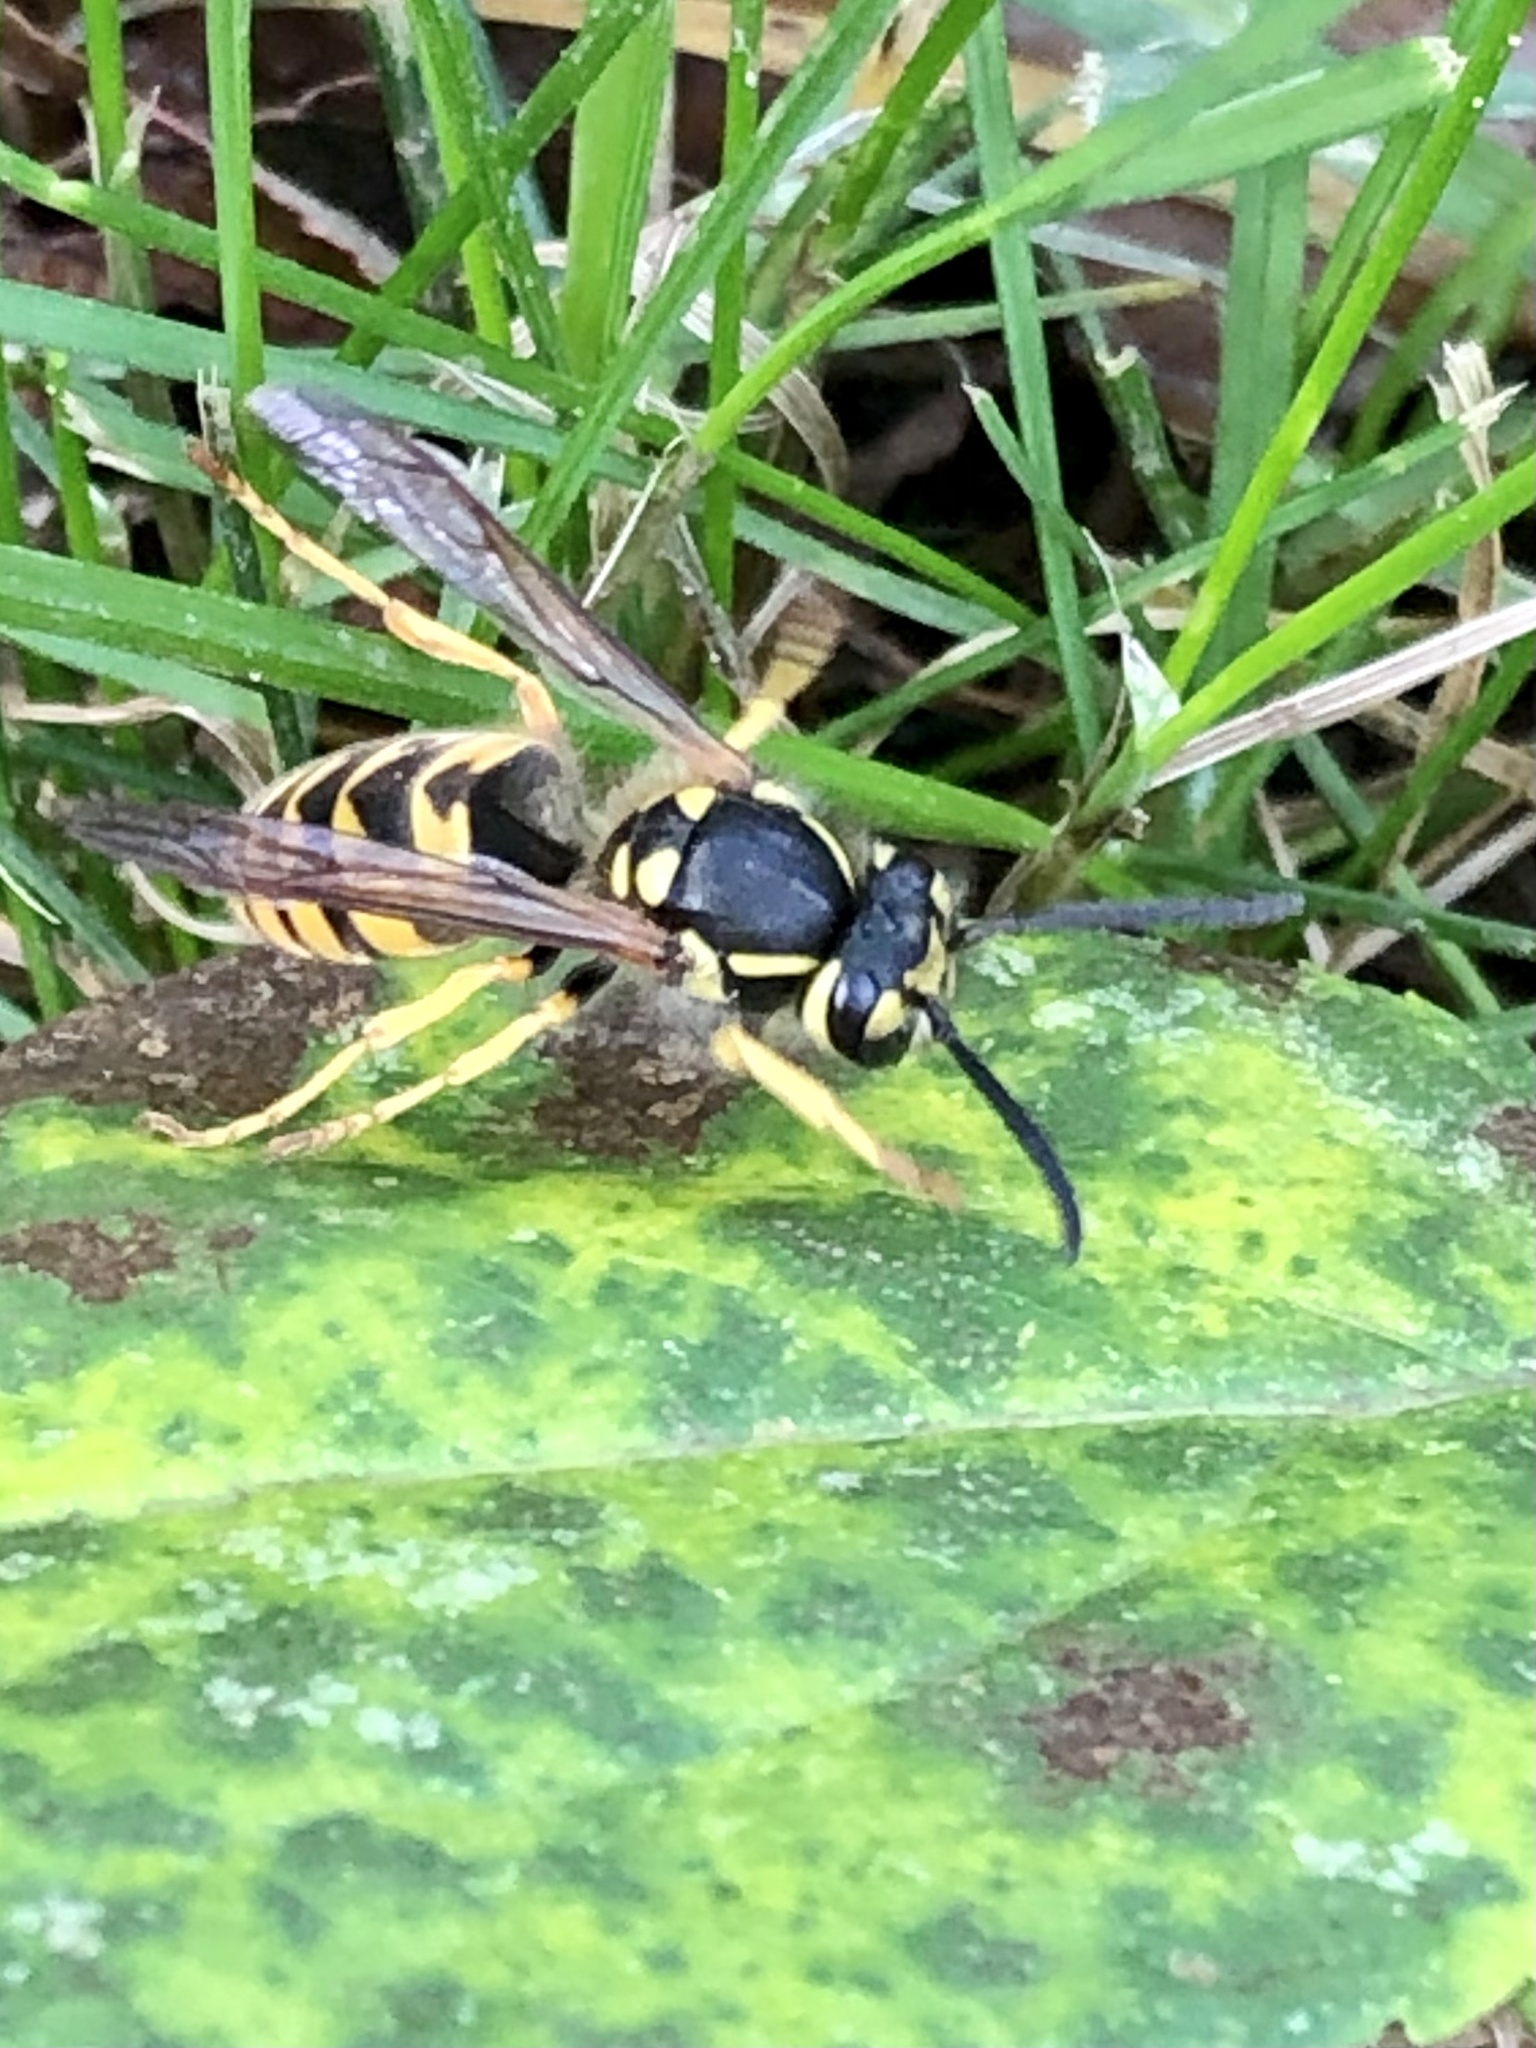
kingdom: Animalia
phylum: Arthropoda
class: Insecta
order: Hymenoptera
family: Vespidae
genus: Vespula
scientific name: Vespula germanica
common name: German wasp
